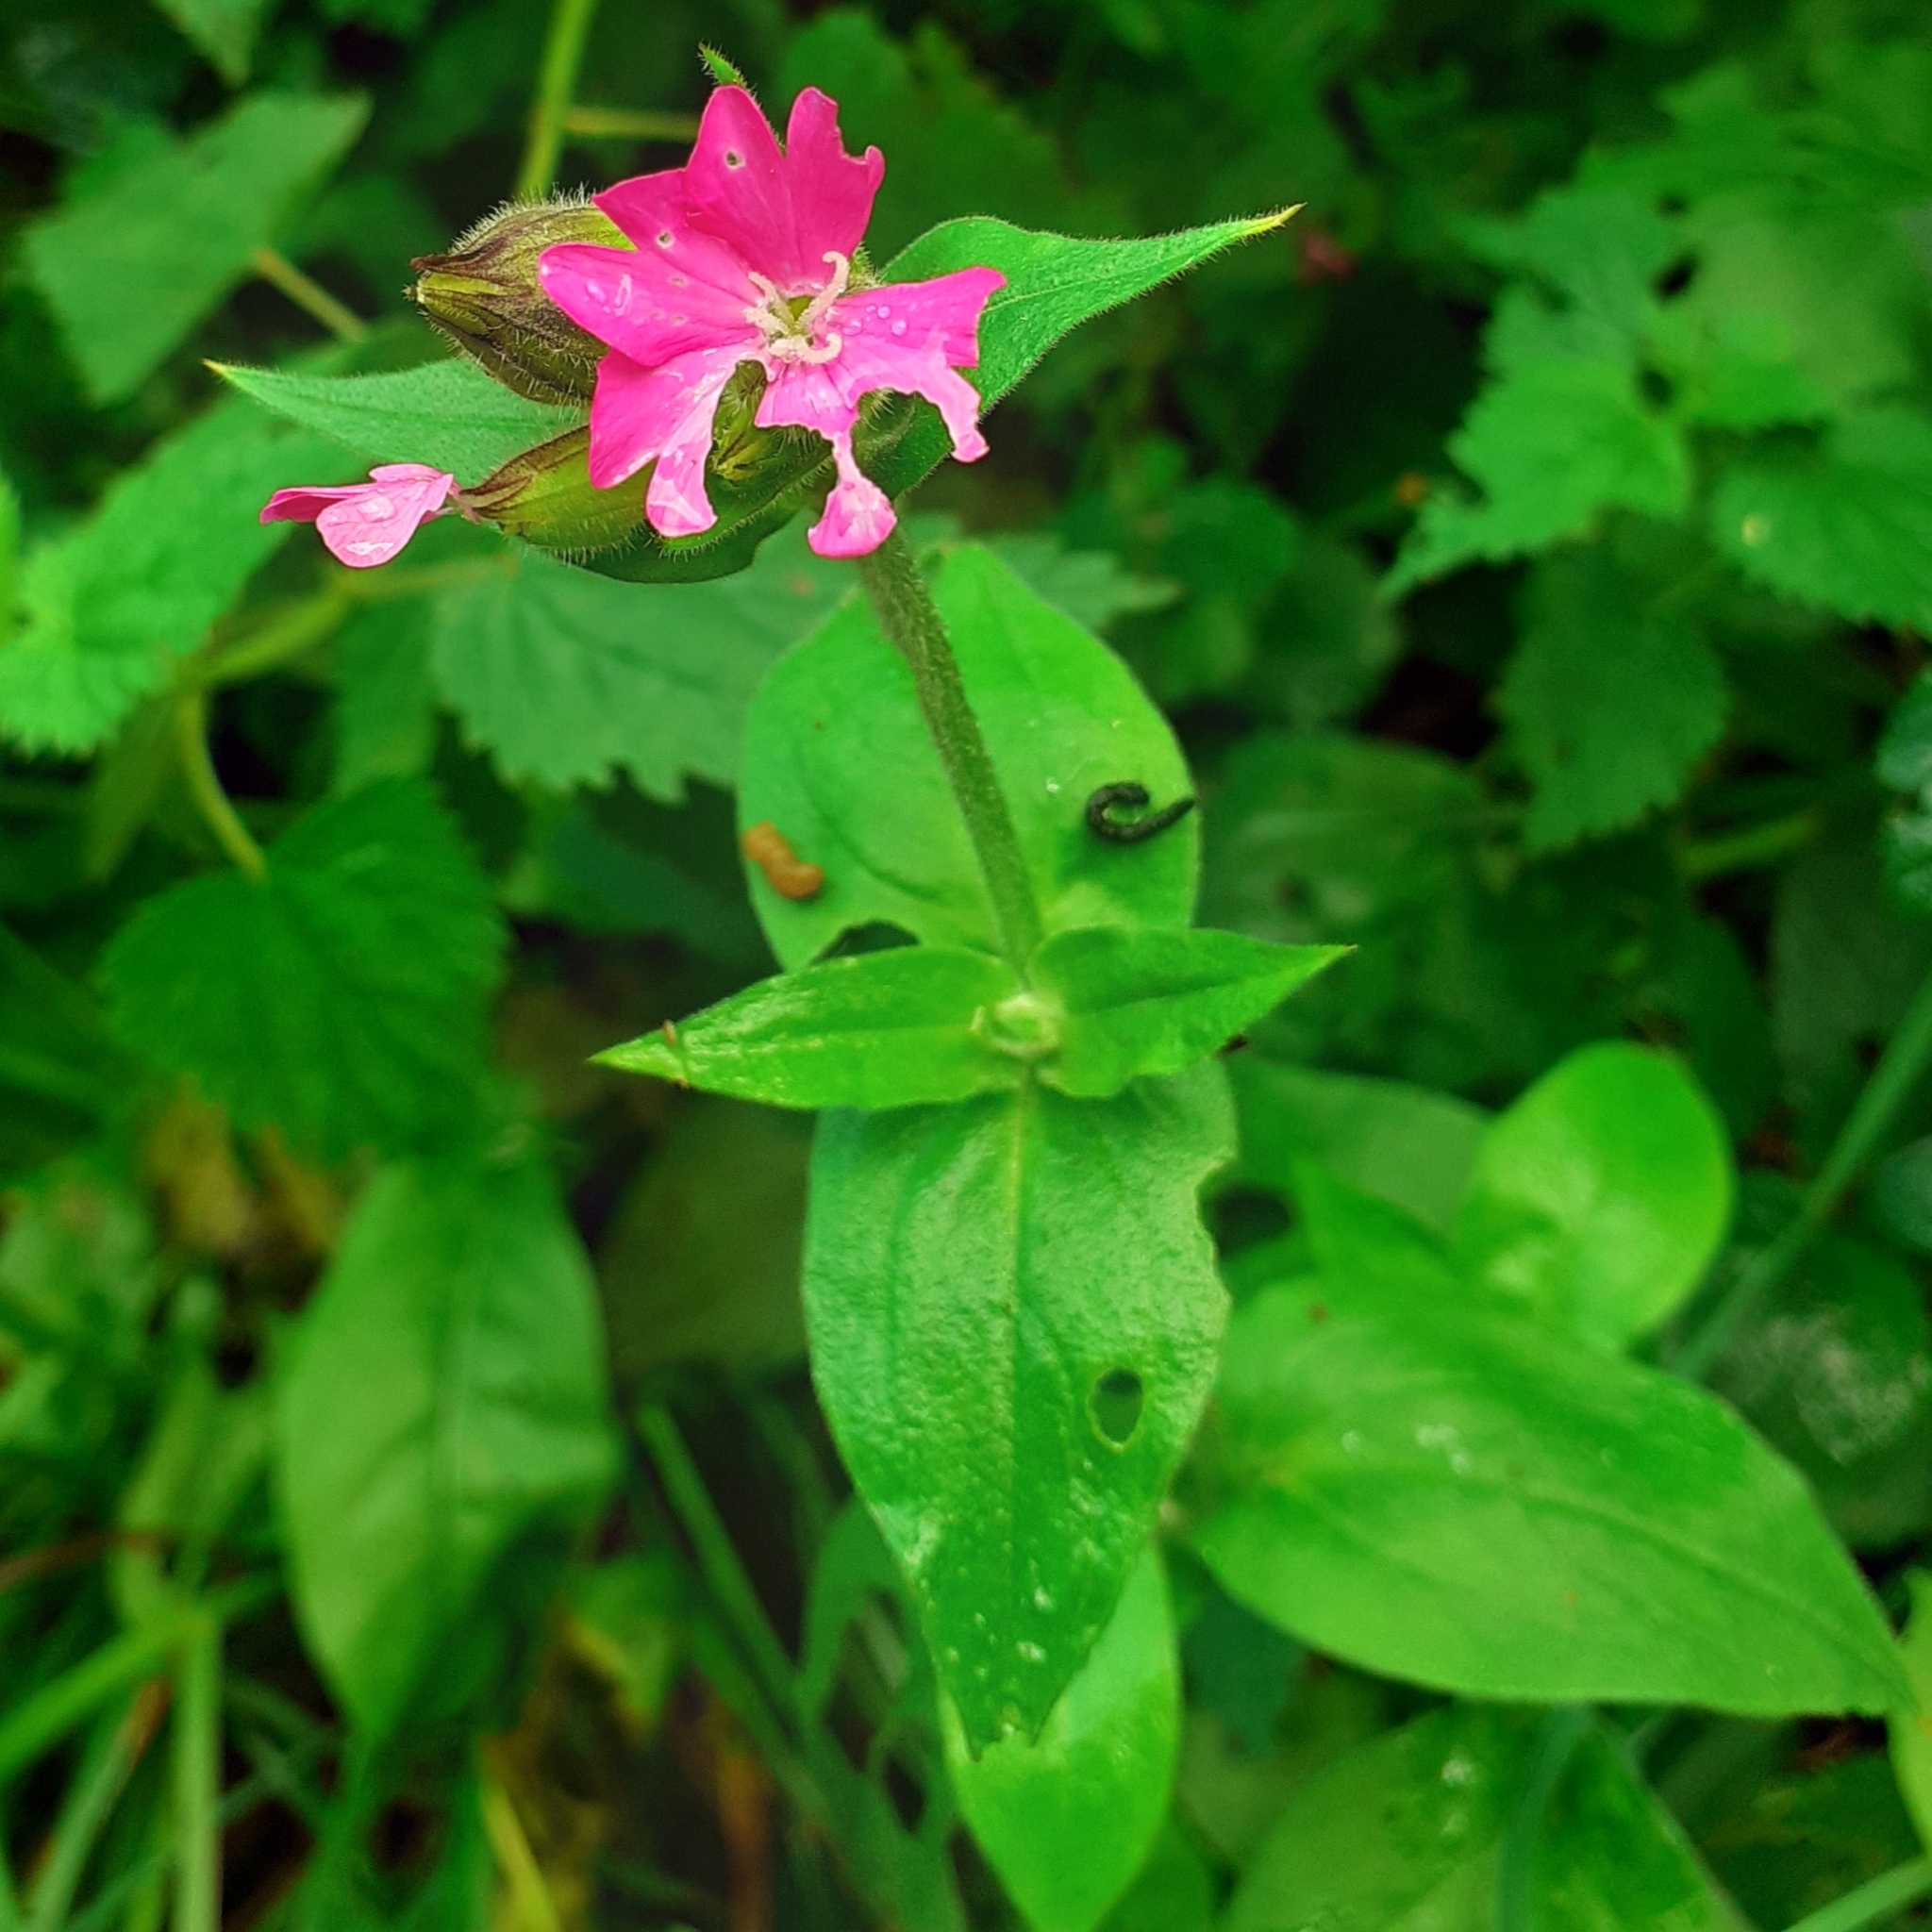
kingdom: Plantae
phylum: Tracheophyta
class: Magnoliopsida
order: Caryophyllales
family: Caryophyllaceae
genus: Silene
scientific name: Silene dioica
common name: Red campion
